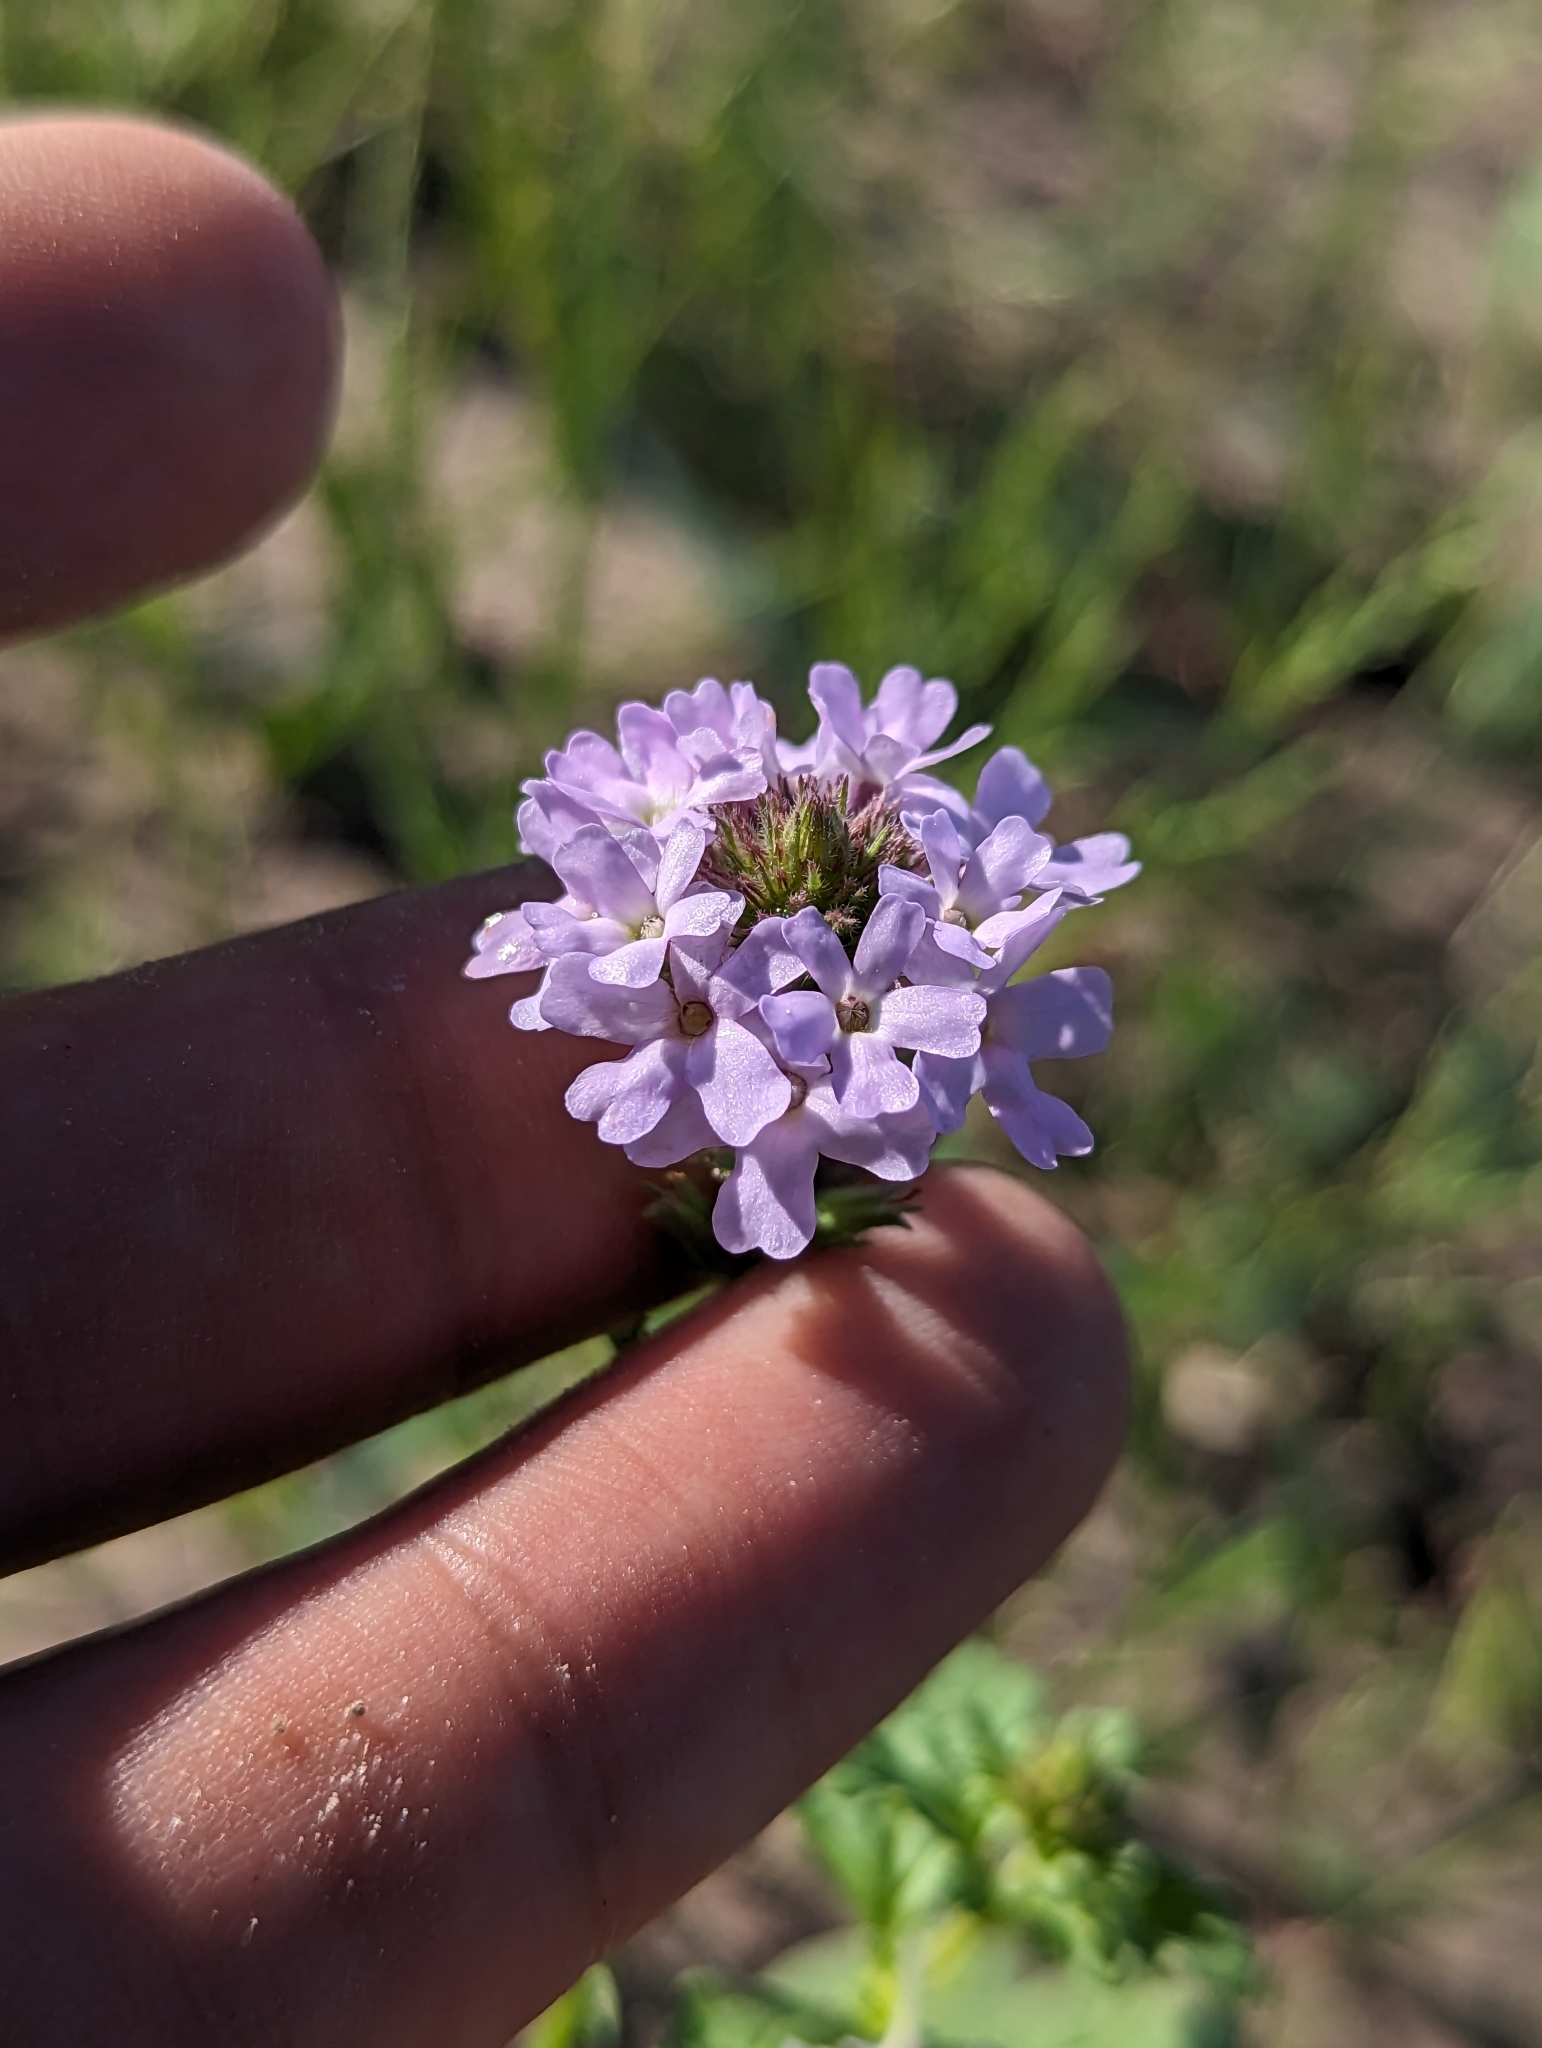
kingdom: Plantae
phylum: Tracheophyta
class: Magnoliopsida
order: Lamiales
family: Verbenaceae
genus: Verbena
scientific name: Verbena bajacalifornica
